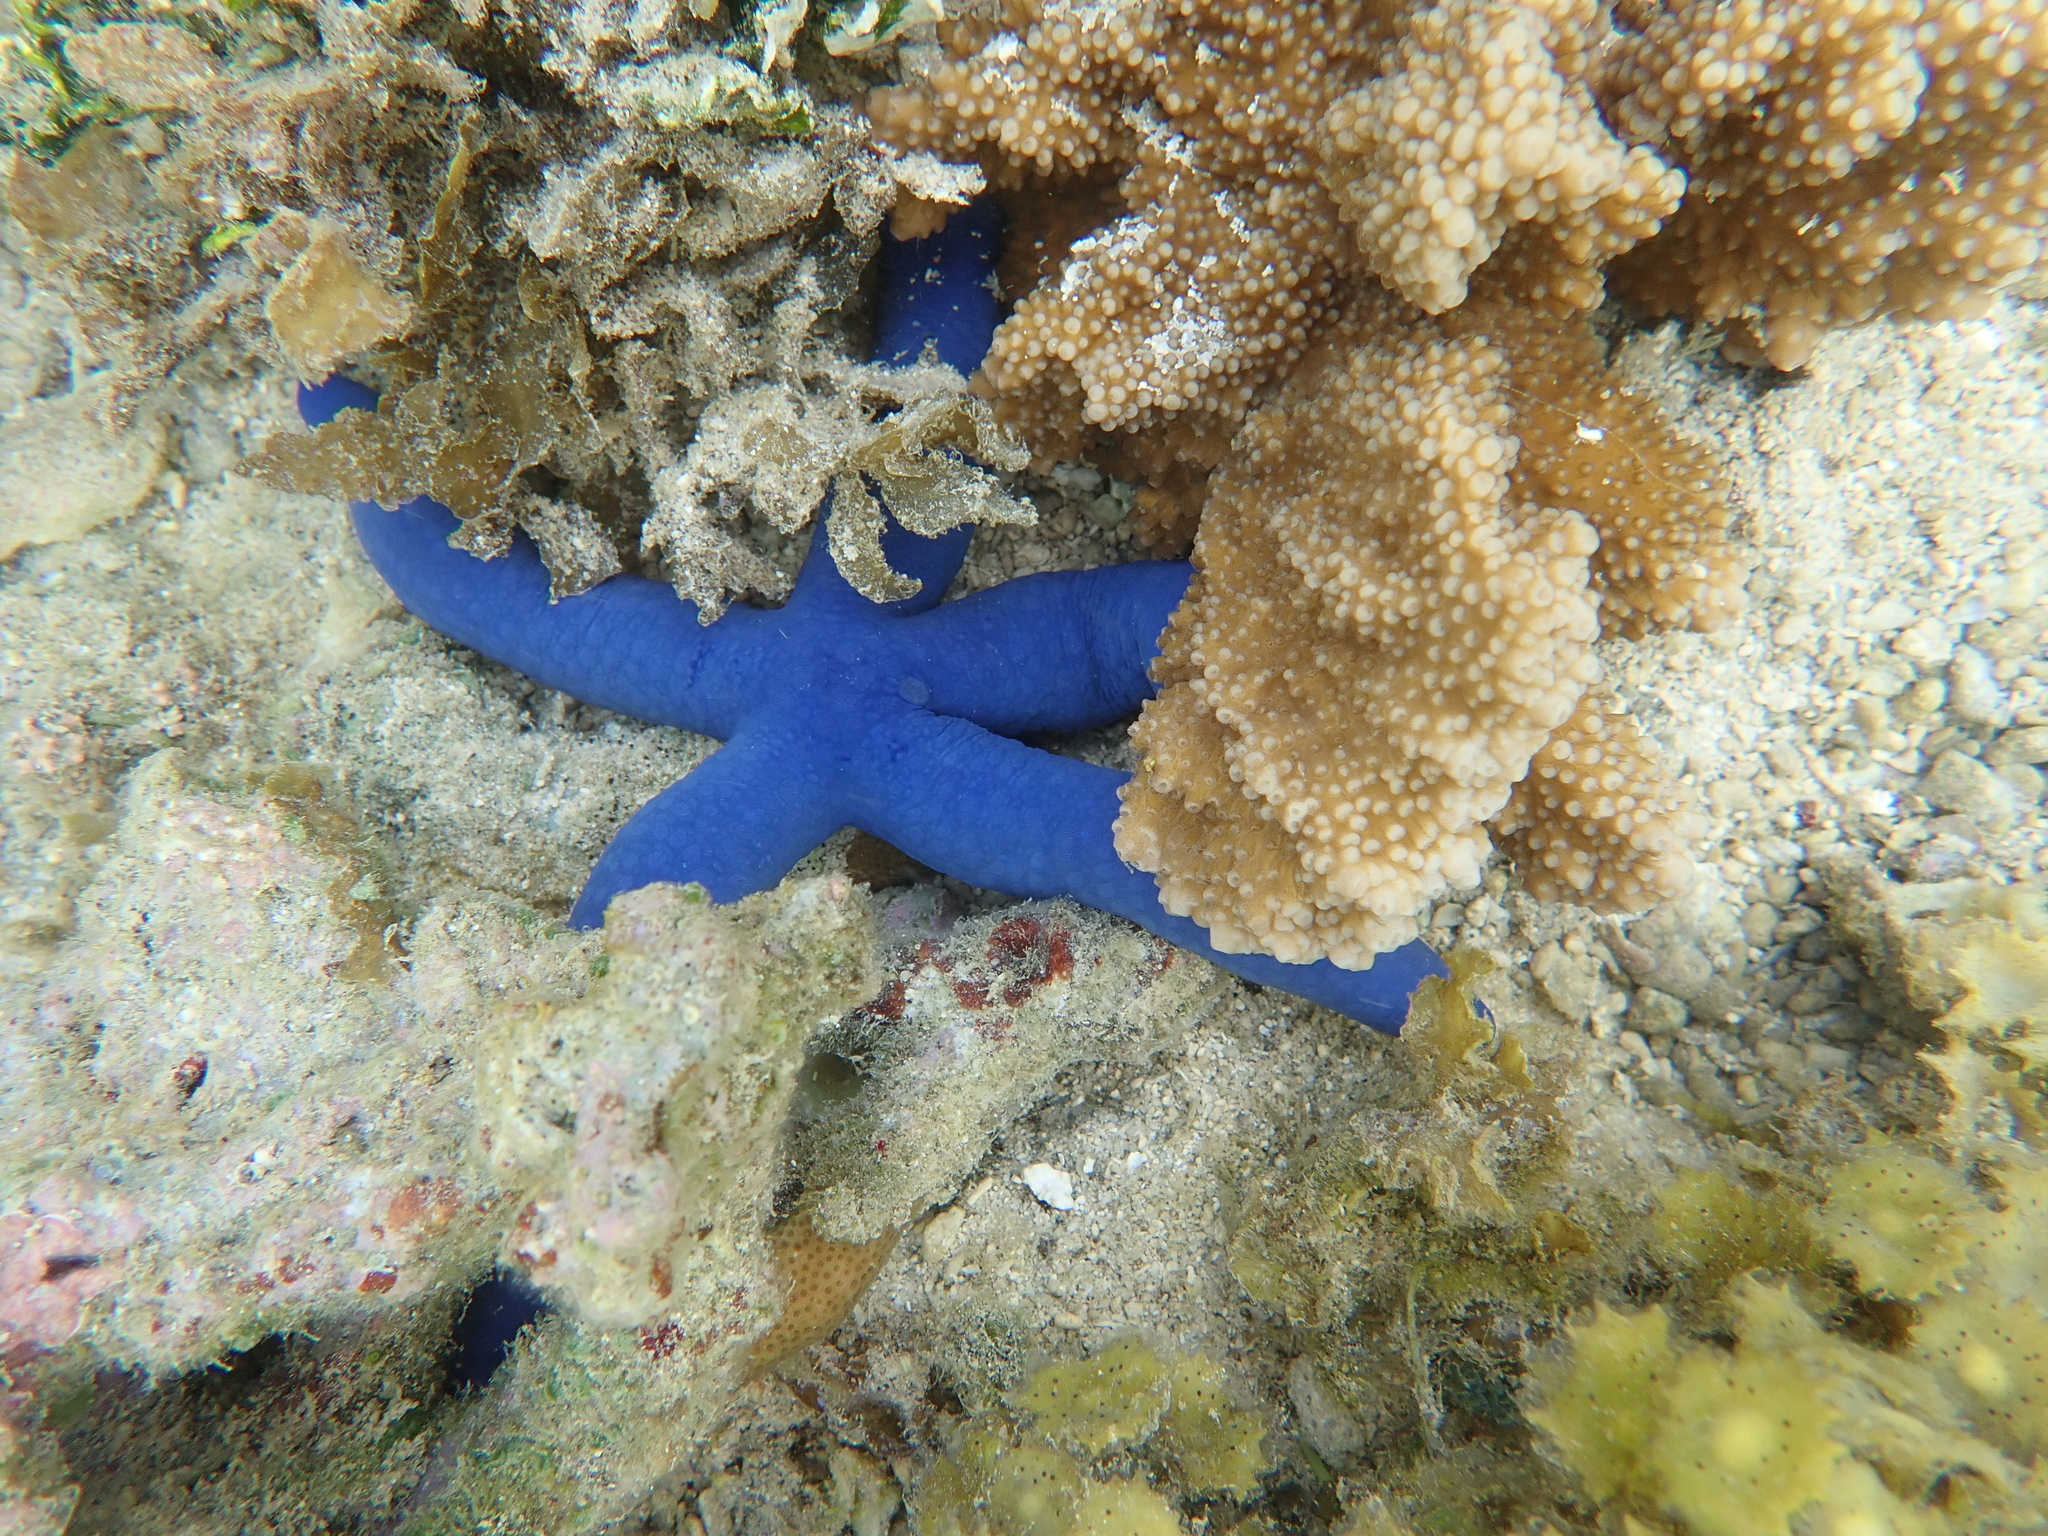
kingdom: Animalia
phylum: Echinodermata
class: Asteroidea
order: Valvatida
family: Ophidiasteridae
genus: Linckia
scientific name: Linckia laevigata
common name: Azure sea star
